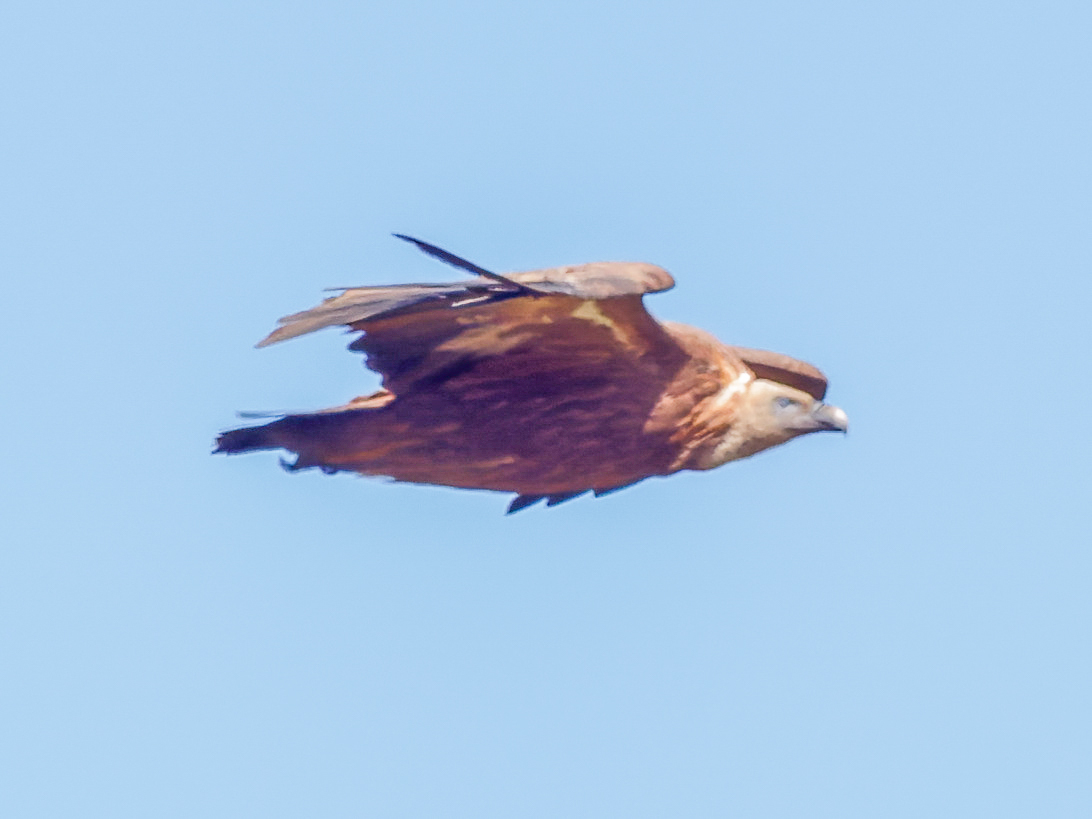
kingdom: Animalia
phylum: Chordata
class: Aves
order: Accipitriformes
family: Accipitridae
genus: Gyps
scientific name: Gyps fulvus
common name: Griffon vulture
